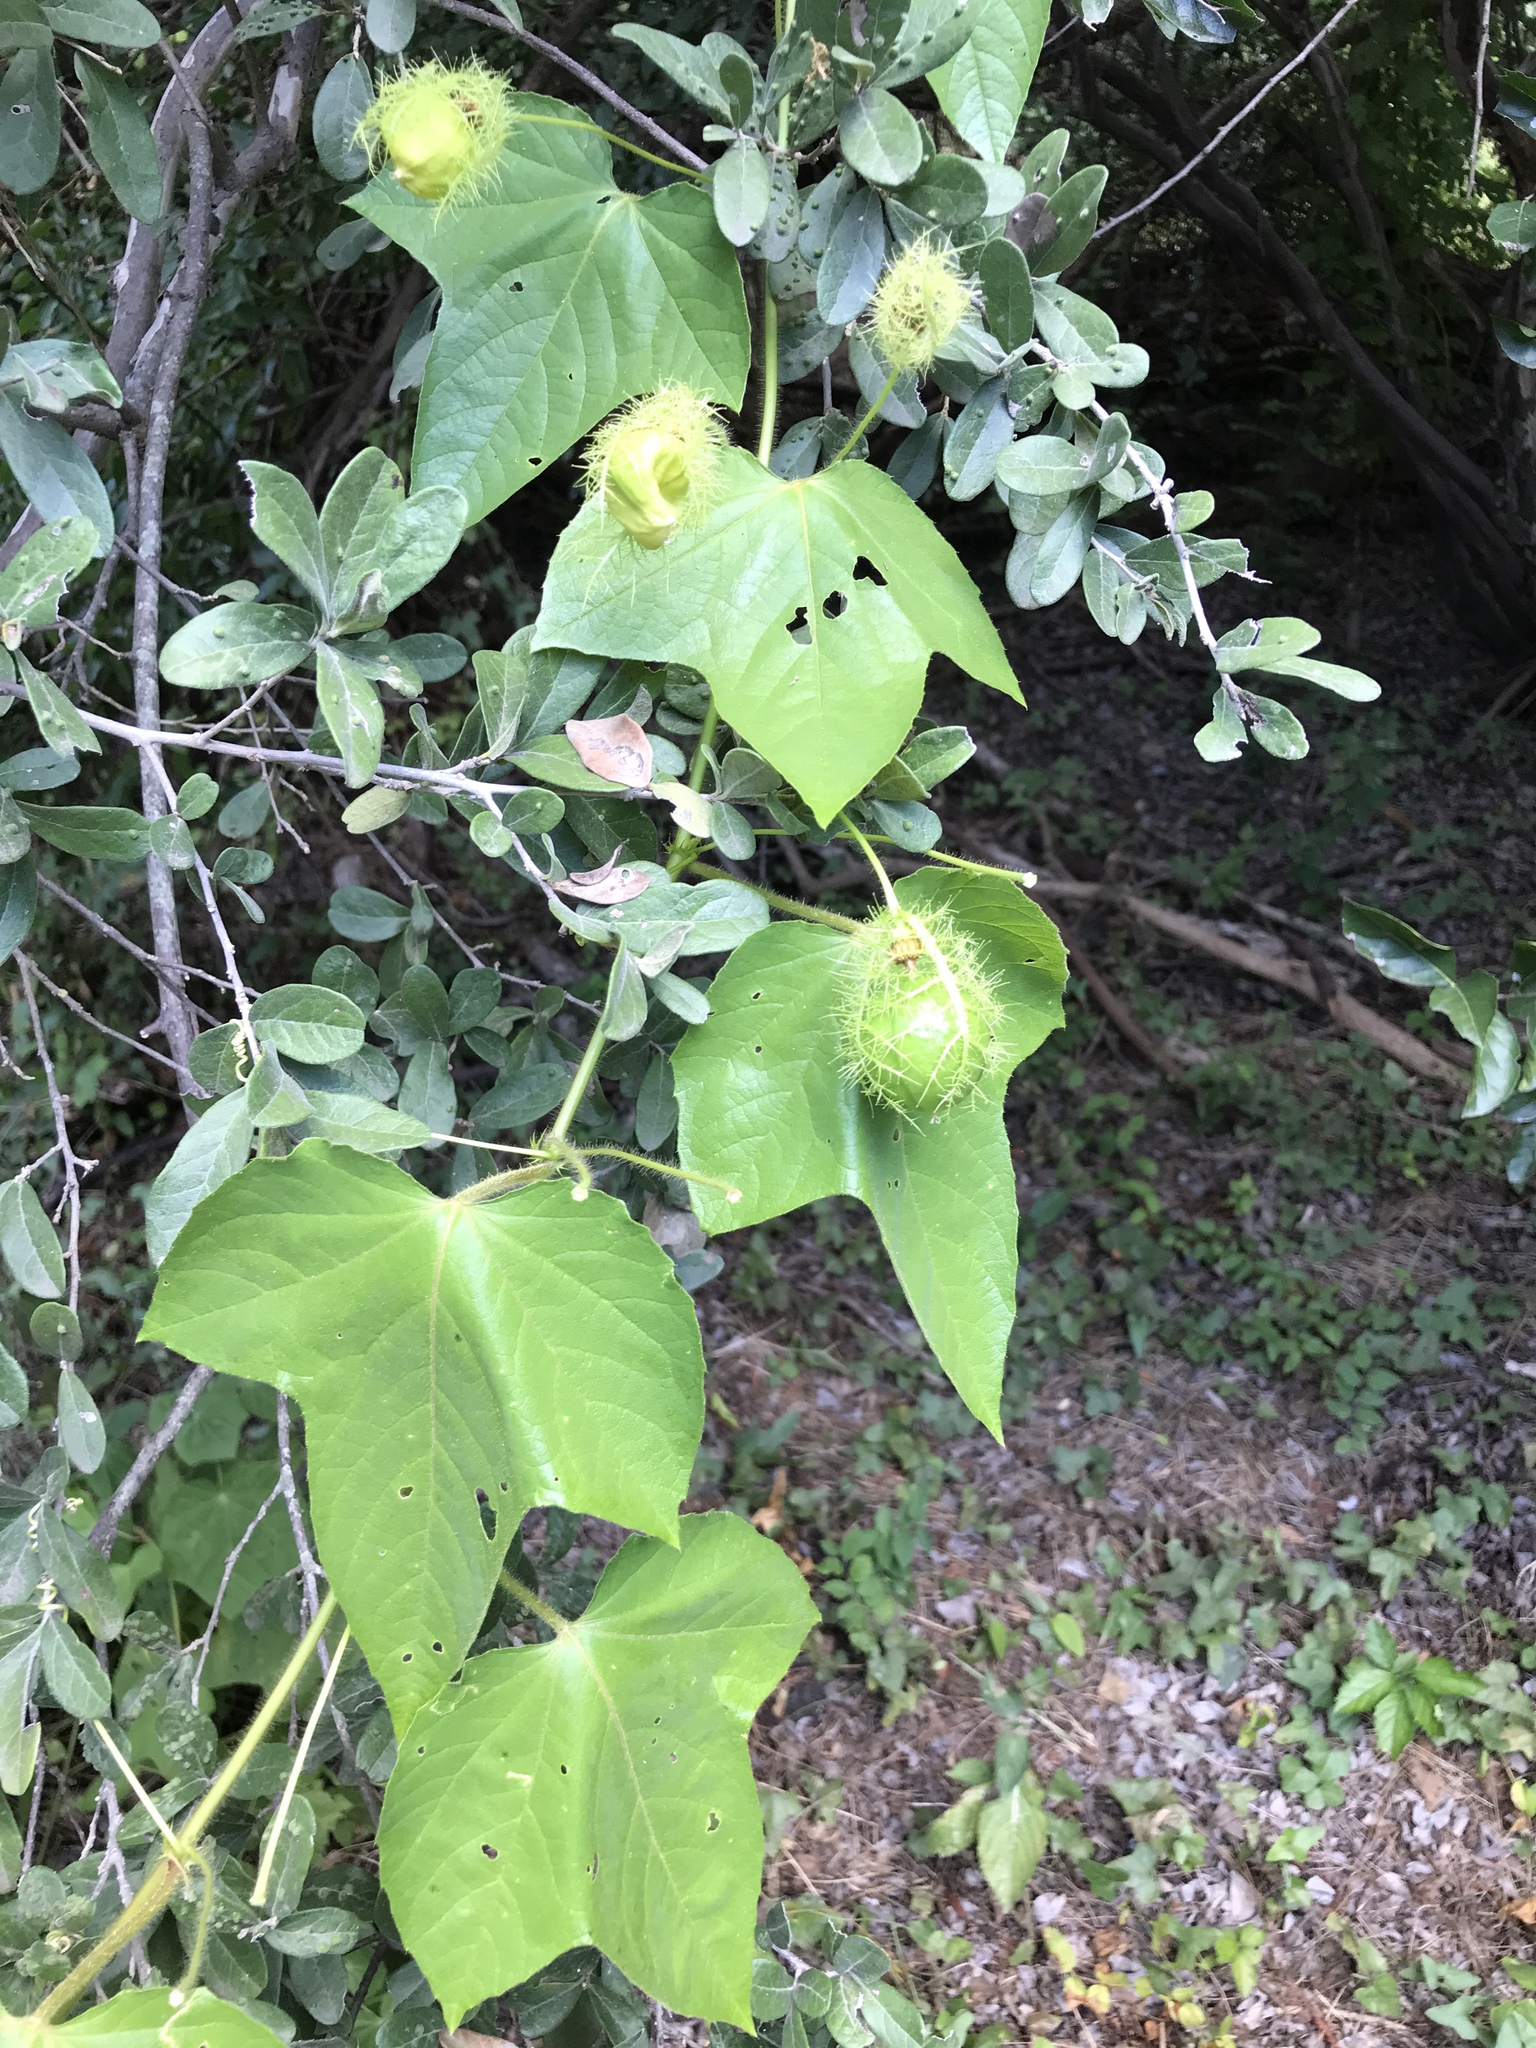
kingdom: Plantae
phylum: Tracheophyta
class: Magnoliopsida
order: Malpighiales
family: Passifloraceae
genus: Passiflora
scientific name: Passiflora
